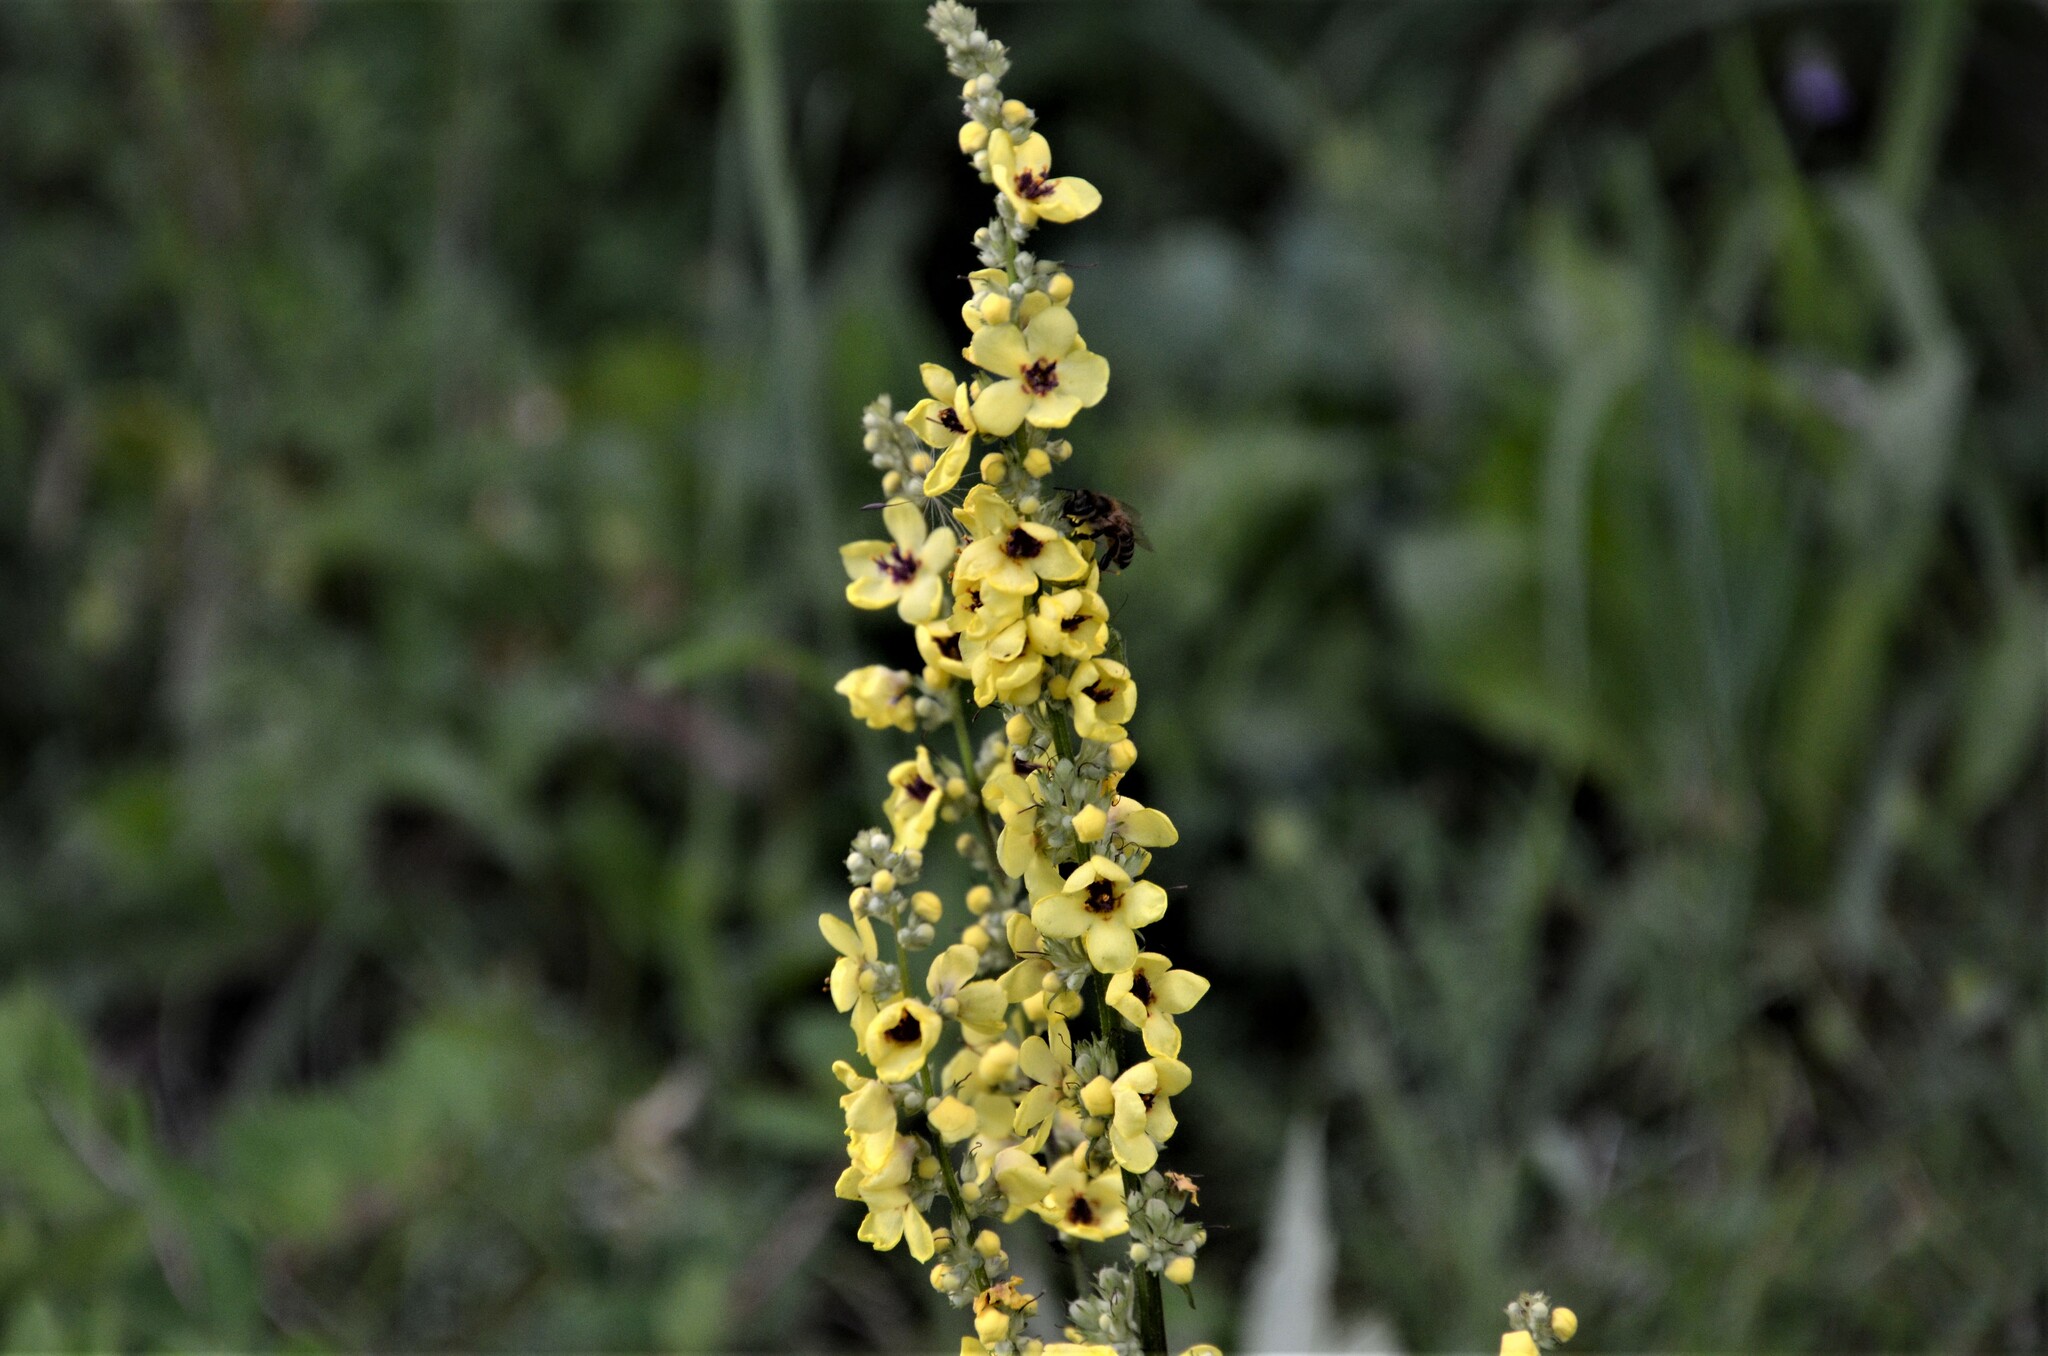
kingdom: Plantae
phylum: Tracheophyta
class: Magnoliopsida
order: Lamiales
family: Scrophulariaceae
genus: Verbascum
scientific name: Verbascum chaixii
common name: Nettle-leaved mullein
